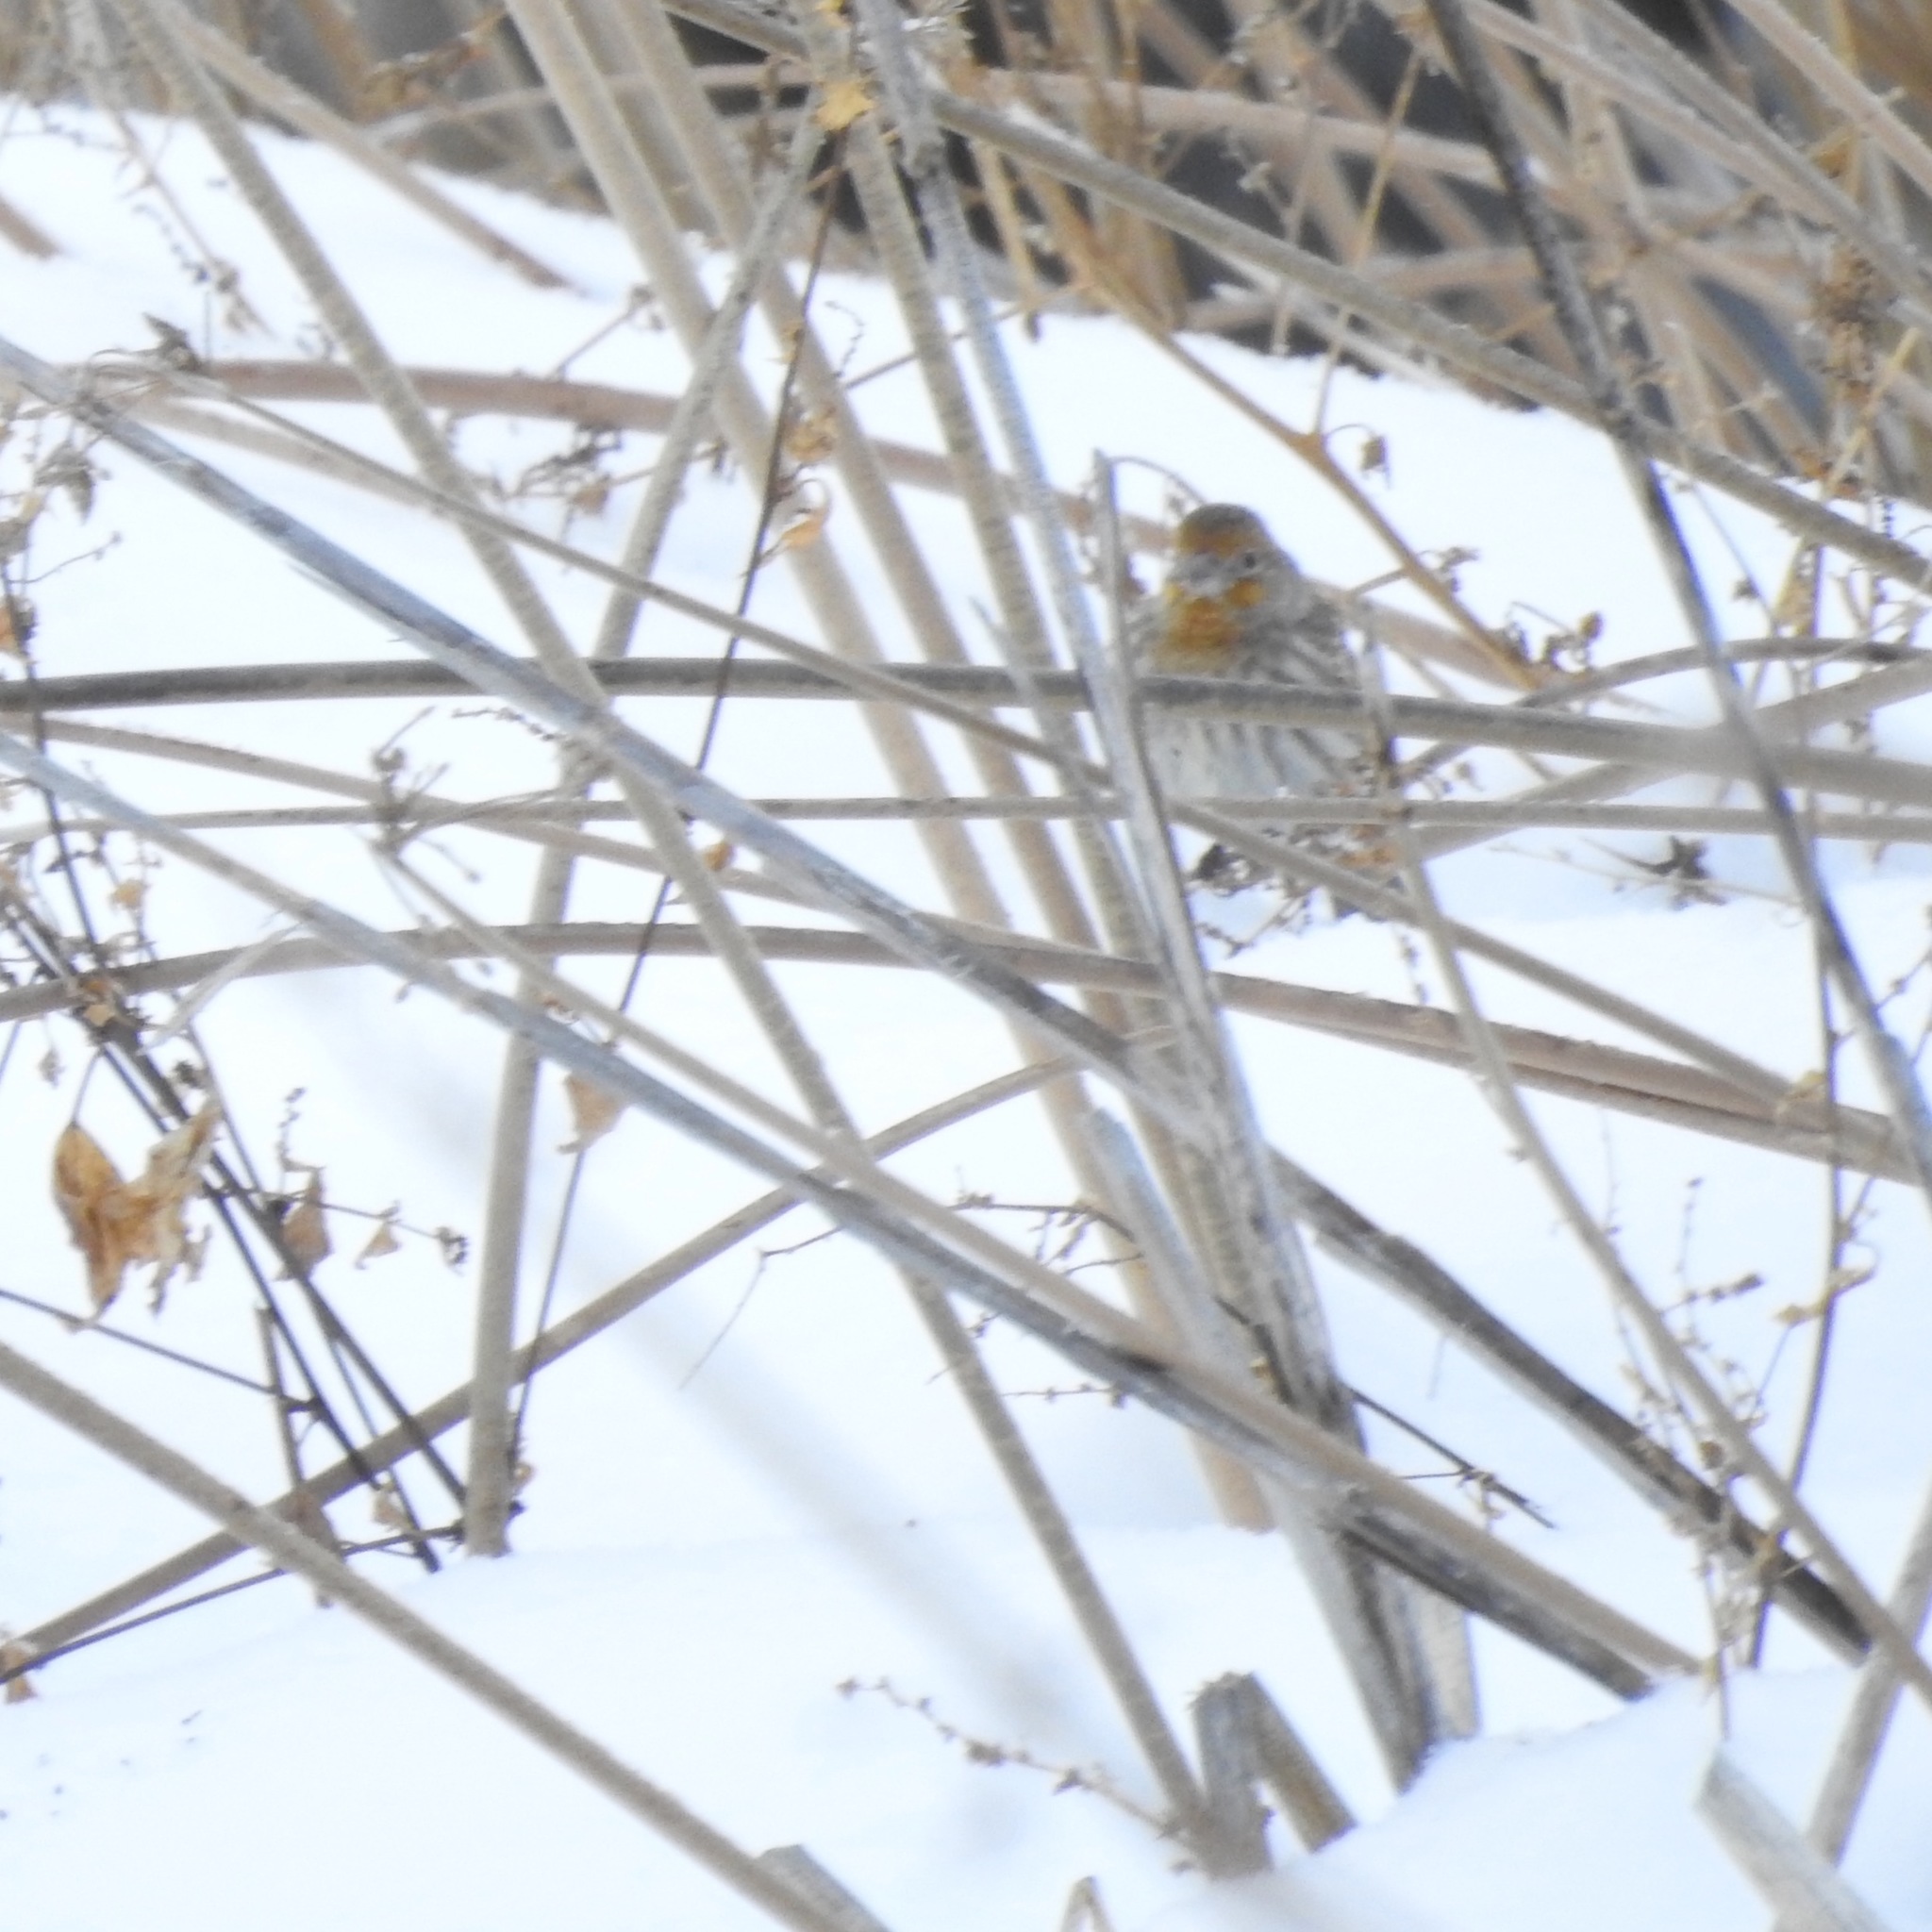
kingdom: Animalia
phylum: Chordata
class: Aves
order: Passeriformes
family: Fringillidae
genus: Haemorhous
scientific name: Haemorhous mexicanus
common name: House finch
